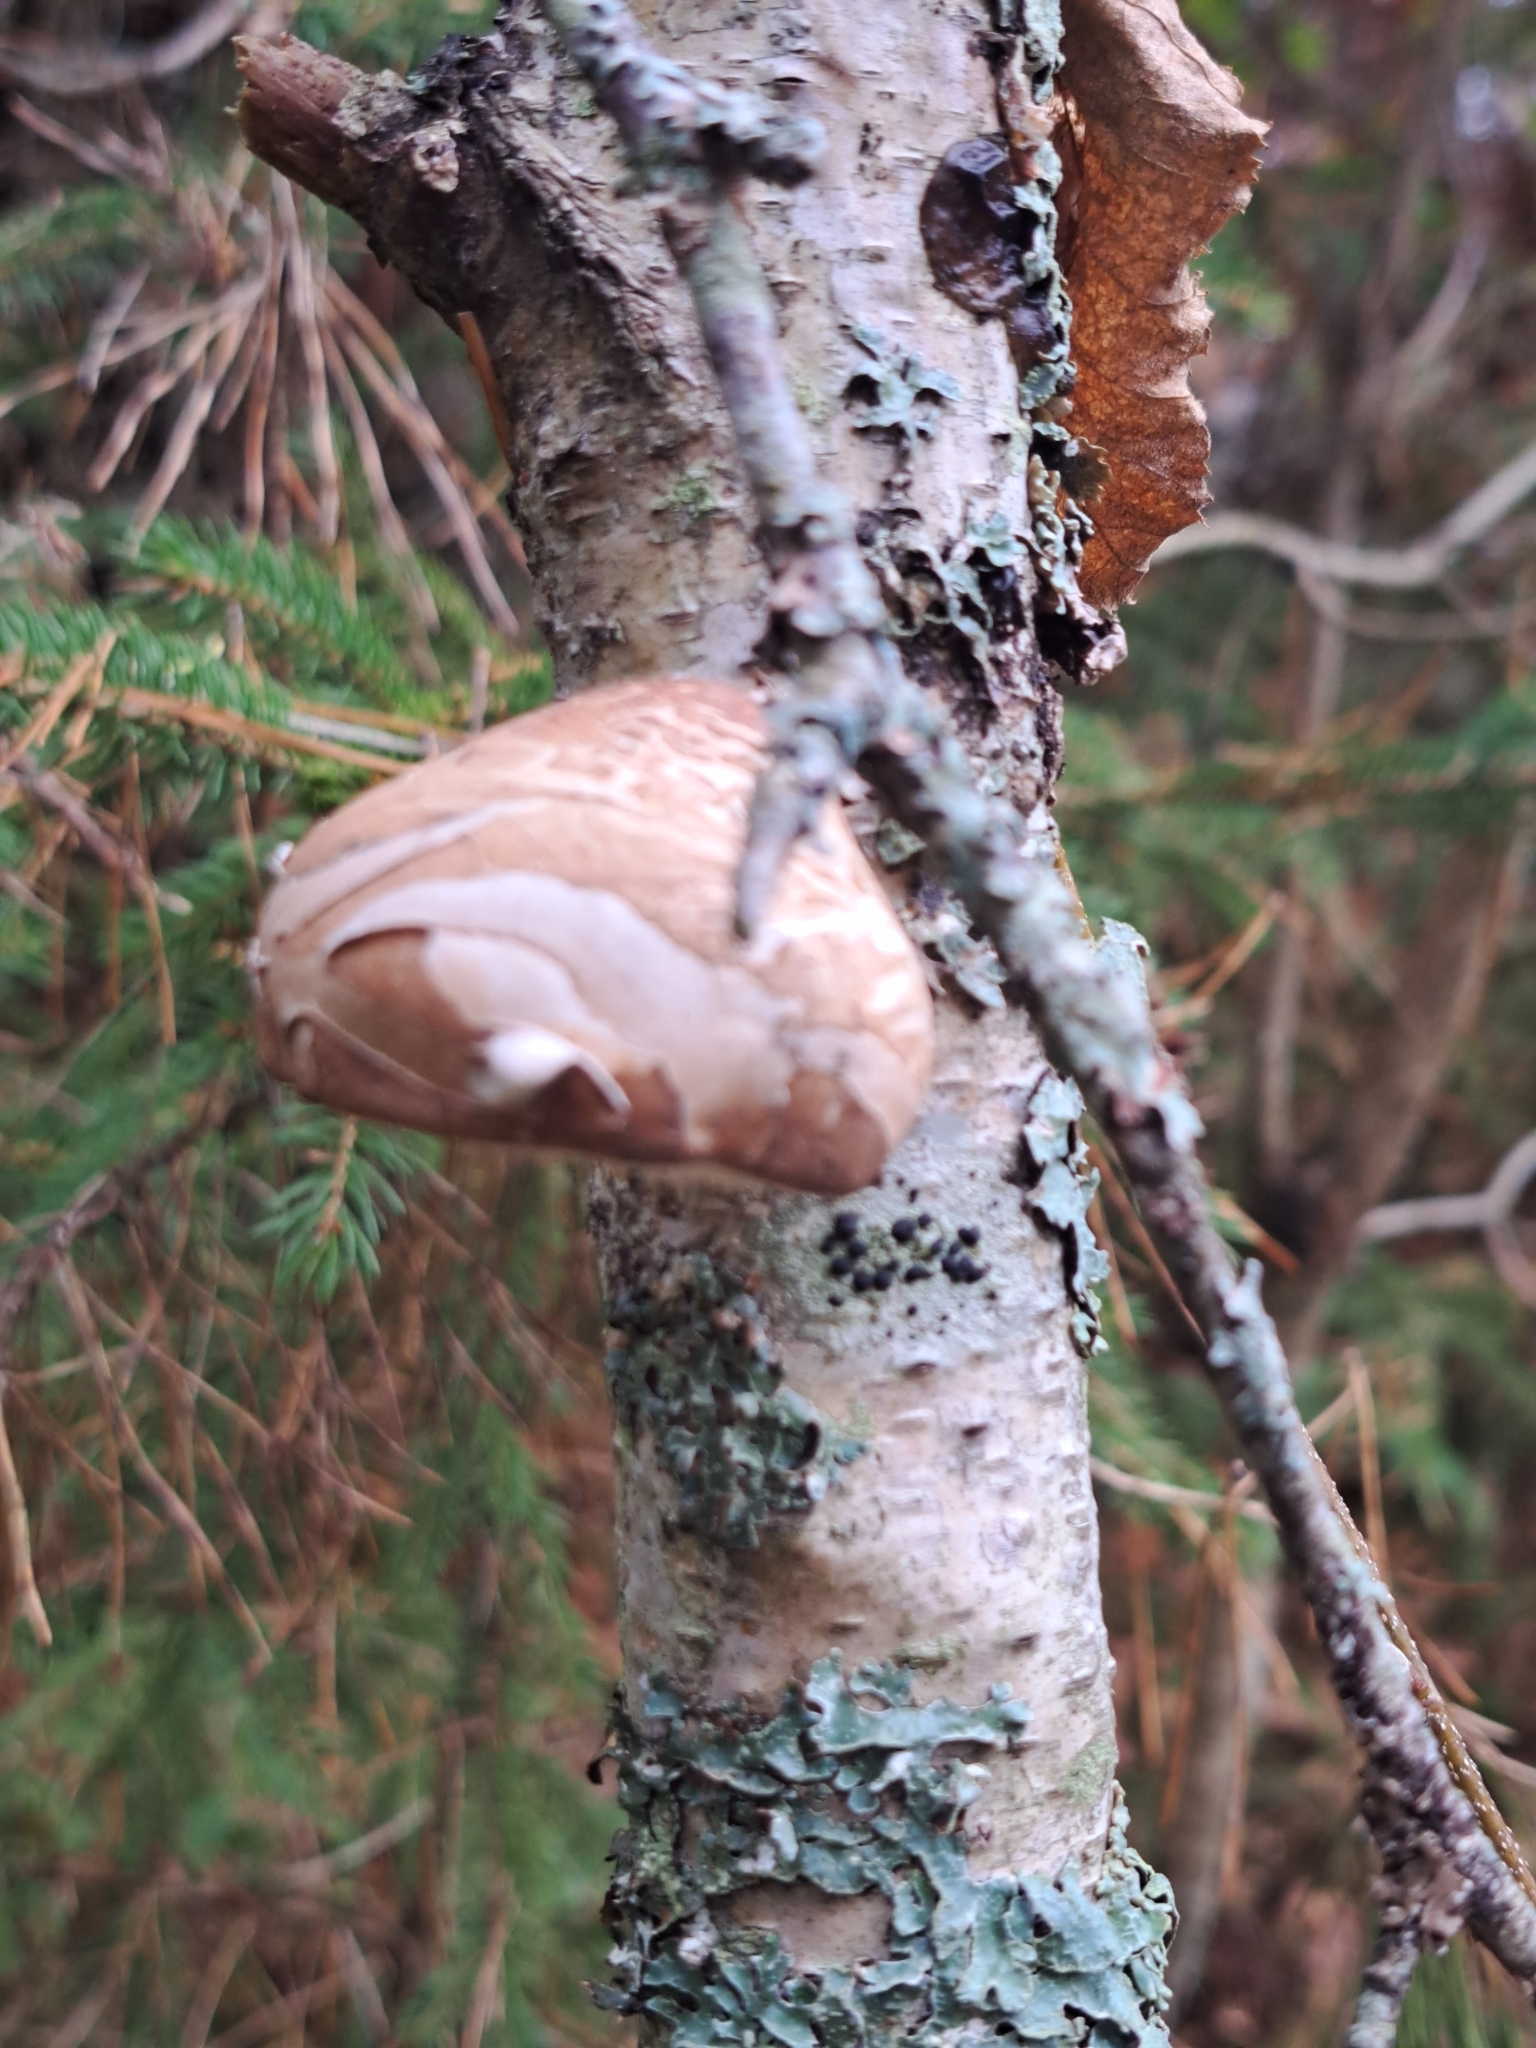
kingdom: Fungi
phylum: Basidiomycota
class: Agaricomycetes
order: Polyporales
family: Fomitopsidaceae
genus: Fomitopsis
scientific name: Fomitopsis betulina
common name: Birch polypore
